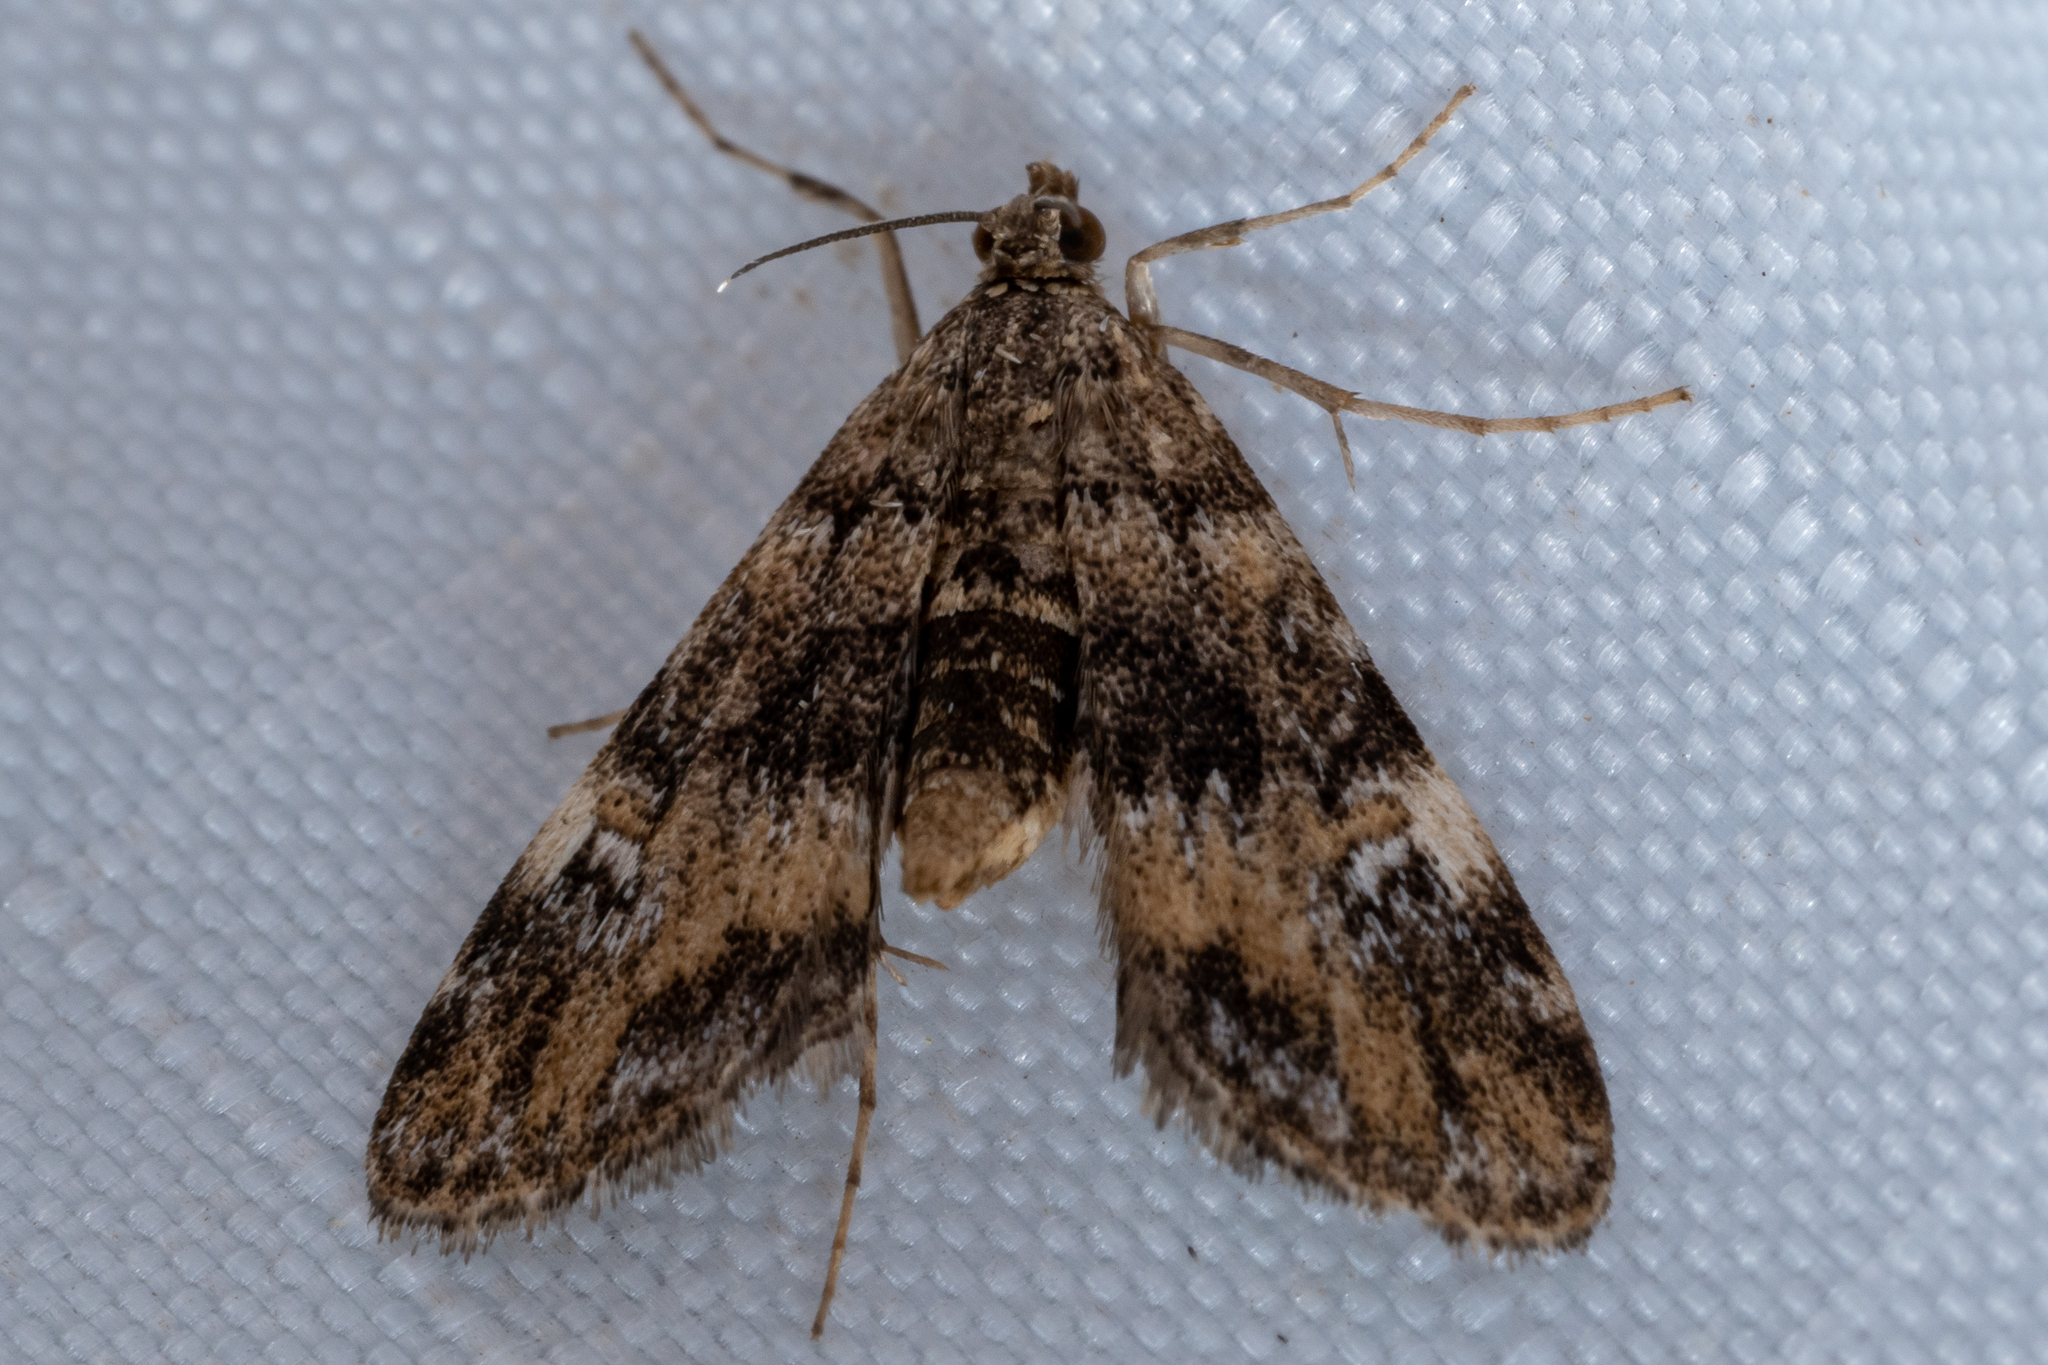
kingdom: Animalia
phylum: Arthropoda
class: Insecta
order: Lepidoptera
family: Crambidae
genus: Elophila
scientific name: Elophila obliteralis
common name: Waterlily leafcutter moth
